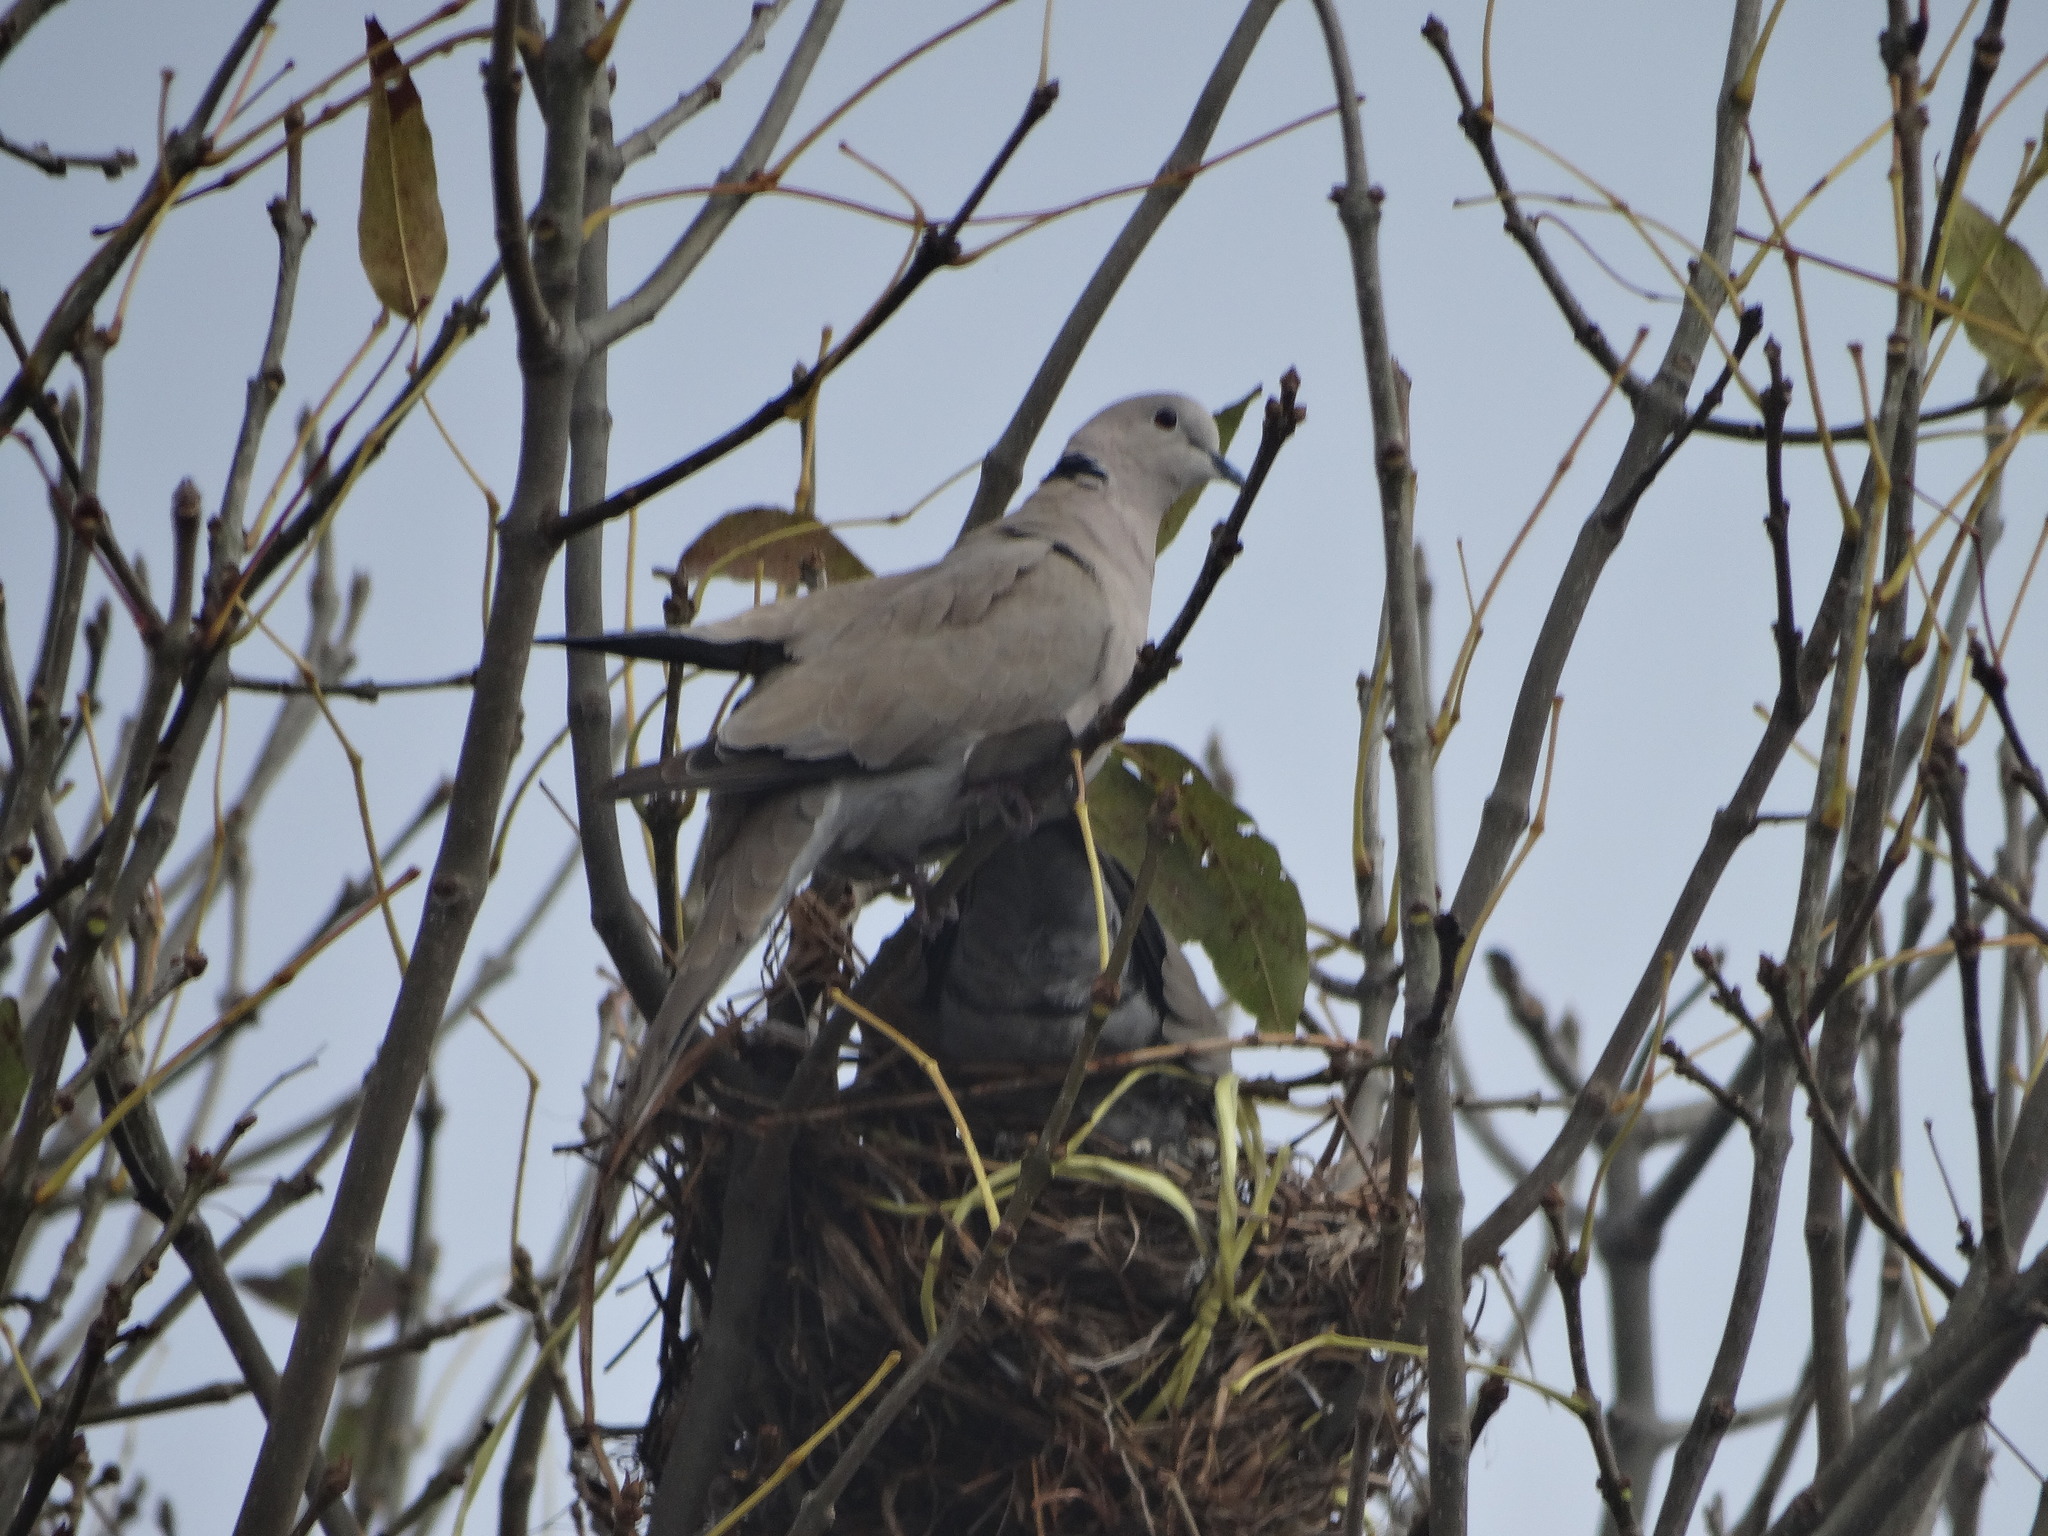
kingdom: Animalia
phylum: Chordata
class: Aves
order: Columbiformes
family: Columbidae
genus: Streptopelia
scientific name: Streptopelia decaocto
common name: Eurasian collared dove
